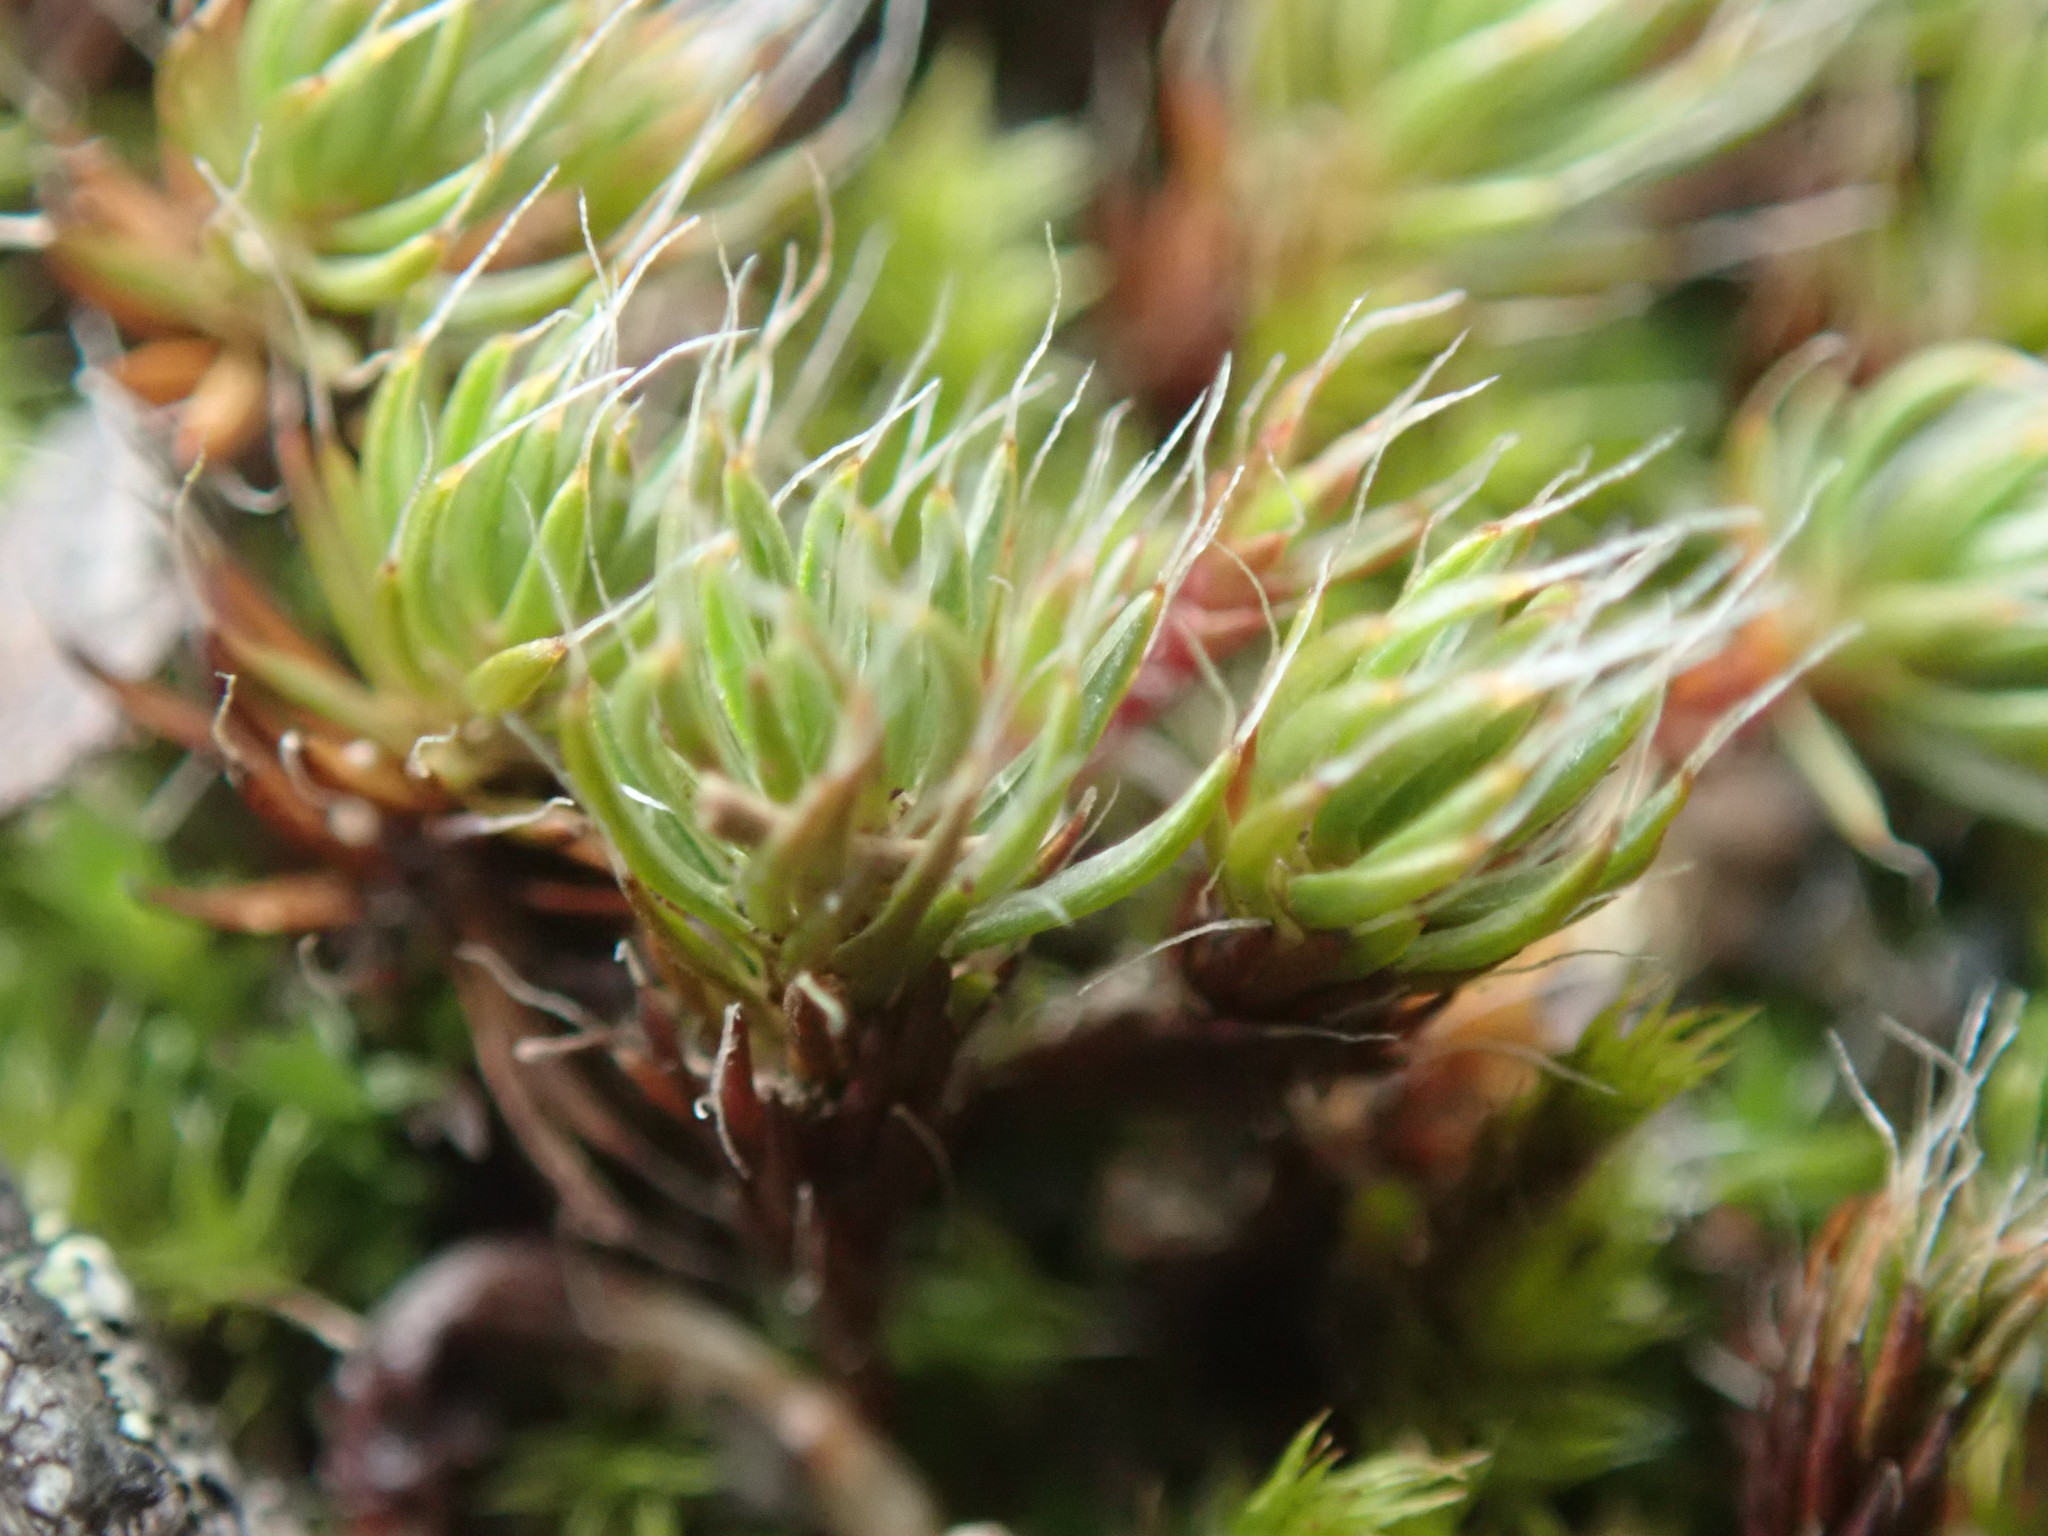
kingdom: Plantae
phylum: Bryophyta
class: Polytrichopsida
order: Polytrichales
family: Polytrichaceae
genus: Polytrichum
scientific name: Polytrichum piliferum
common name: Bristly haircap
